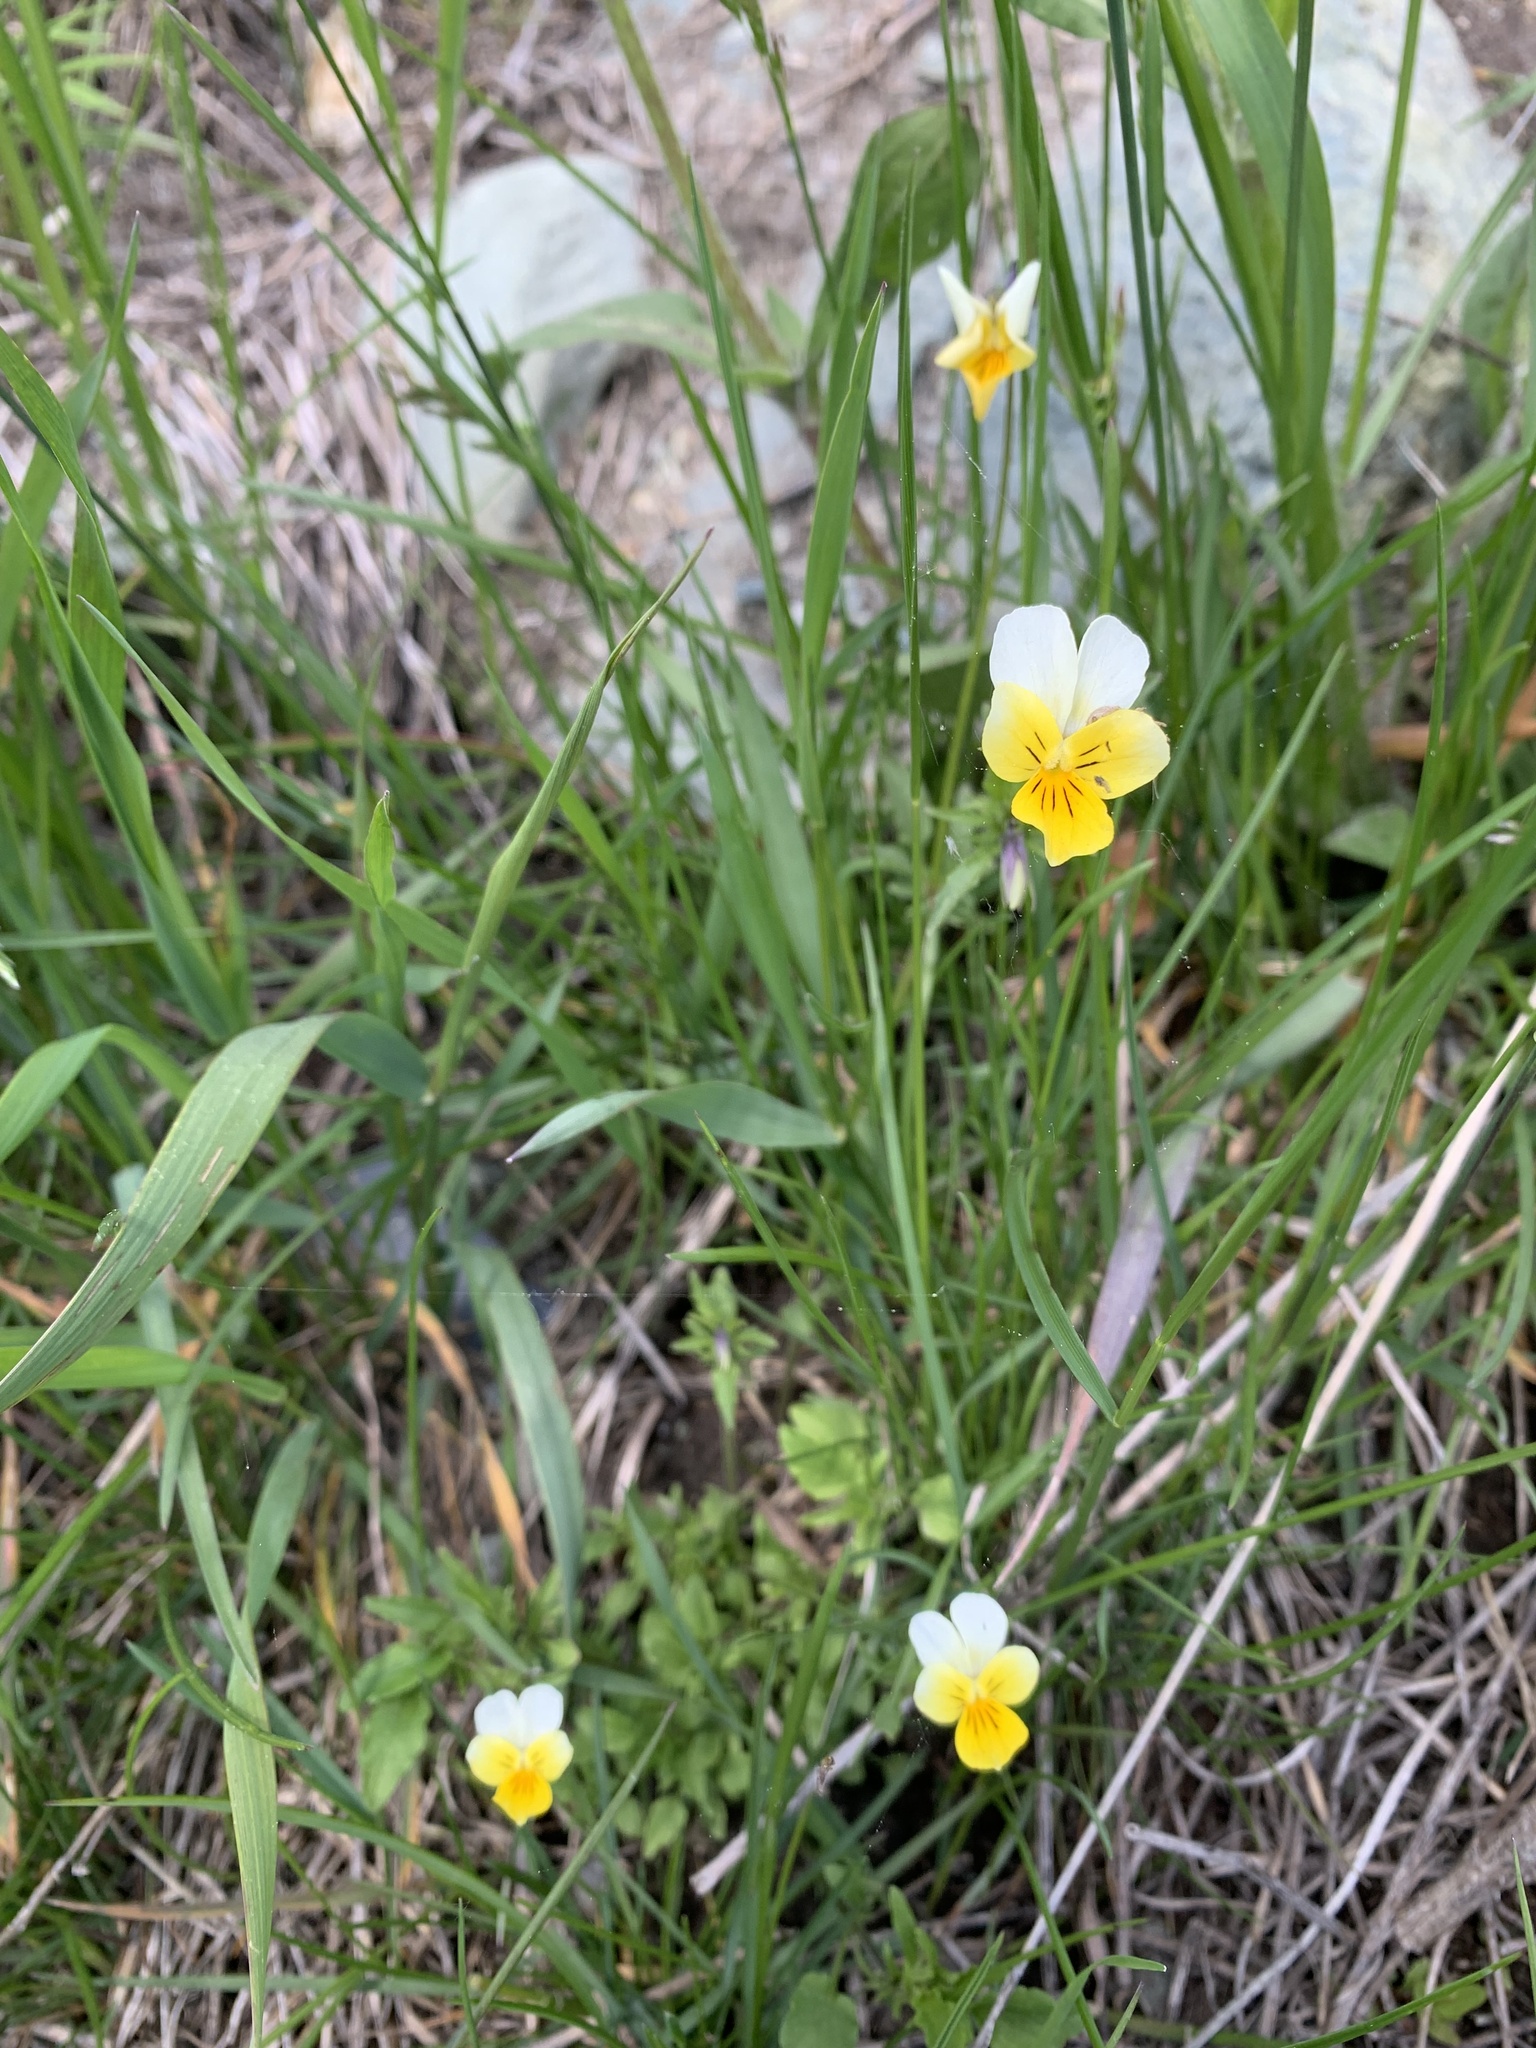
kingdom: Plantae
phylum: Tracheophyta
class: Magnoliopsida
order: Malpighiales
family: Violaceae
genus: Viola
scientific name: Viola tricolor
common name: Pansy
